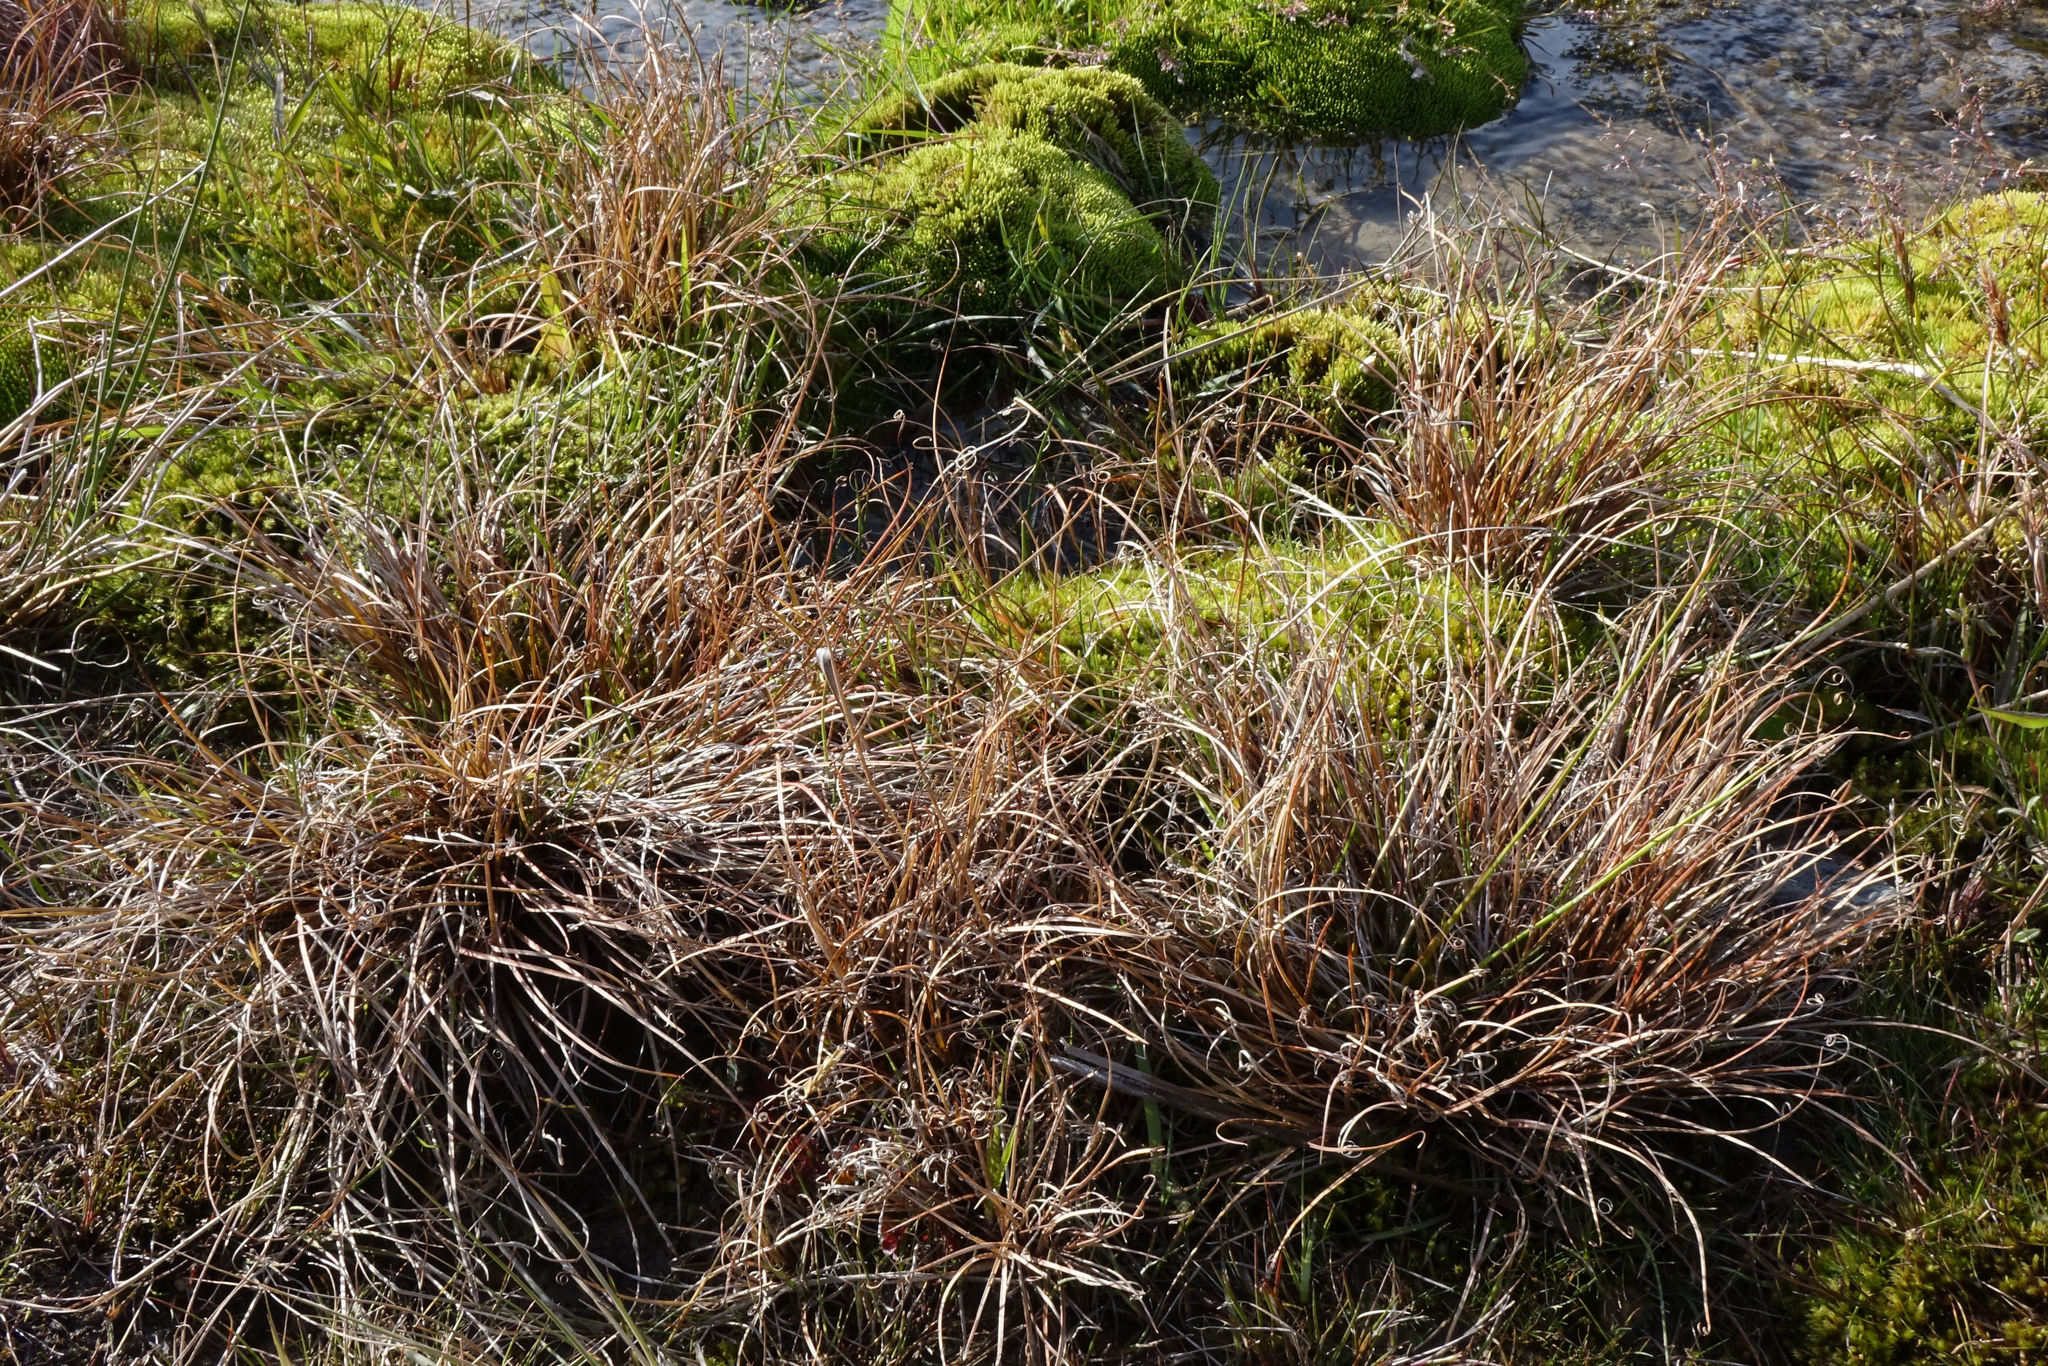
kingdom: Plantae
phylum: Tracheophyta
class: Liliopsida
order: Poales
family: Cyperaceae
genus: Carex
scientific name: Carex petriei
